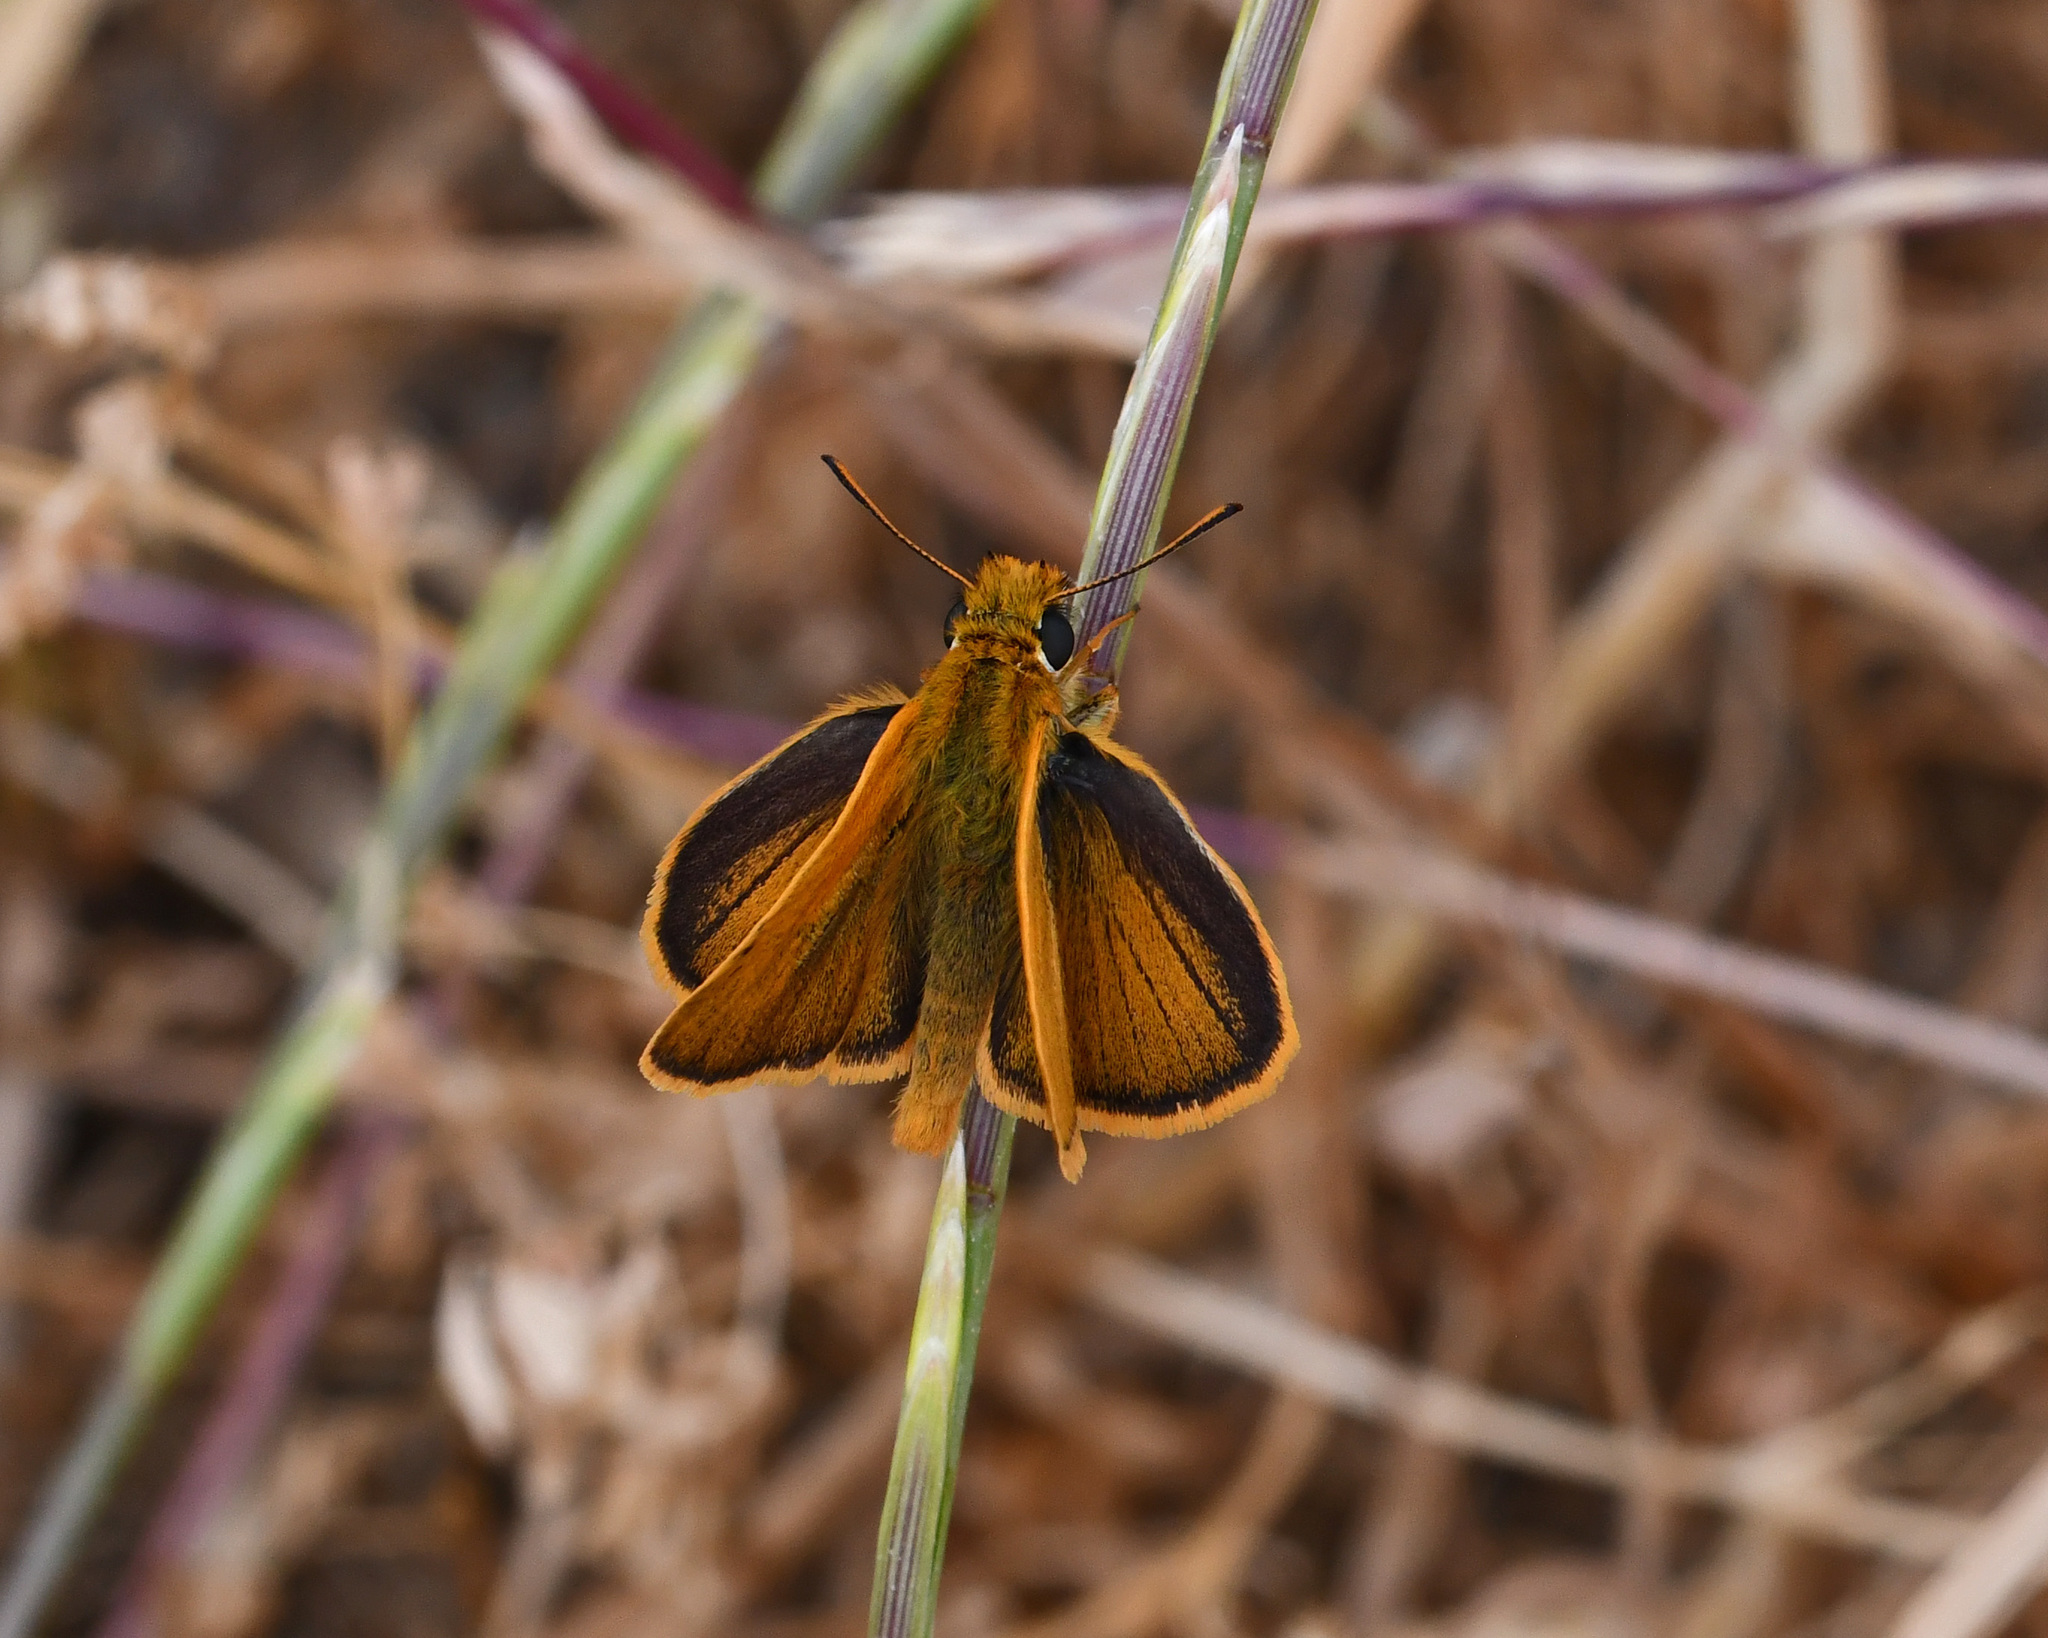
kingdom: Animalia
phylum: Arthropoda
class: Insecta
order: Lepidoptera
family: Hesperiidae
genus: Thymelicus
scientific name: Thymelicus acteon
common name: Lulworth skipper
